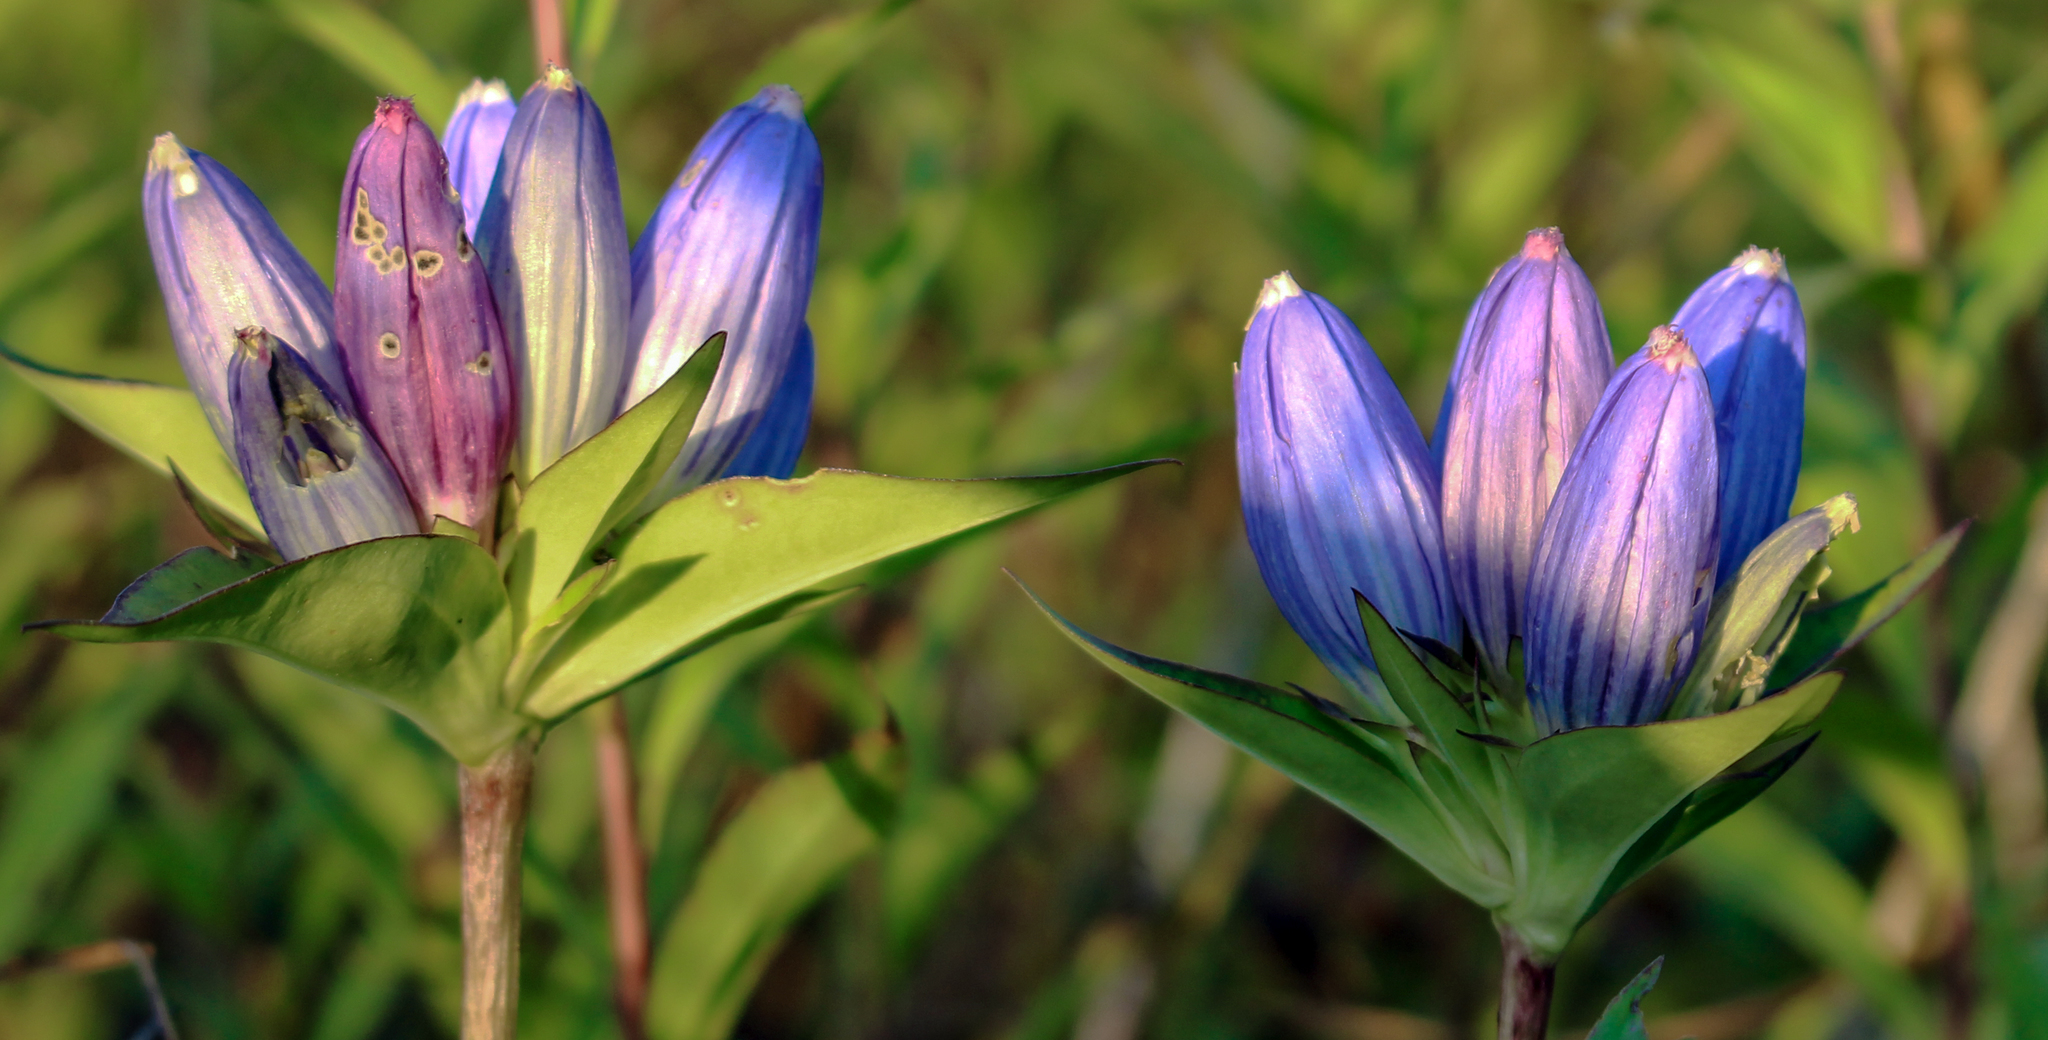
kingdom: Plantae
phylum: Tracheophyta
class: Magnoliopsida
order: Gentianales
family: Gentianaceae
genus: Gentiana
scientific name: Gentiana andrewsii
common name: Bottle gentian
